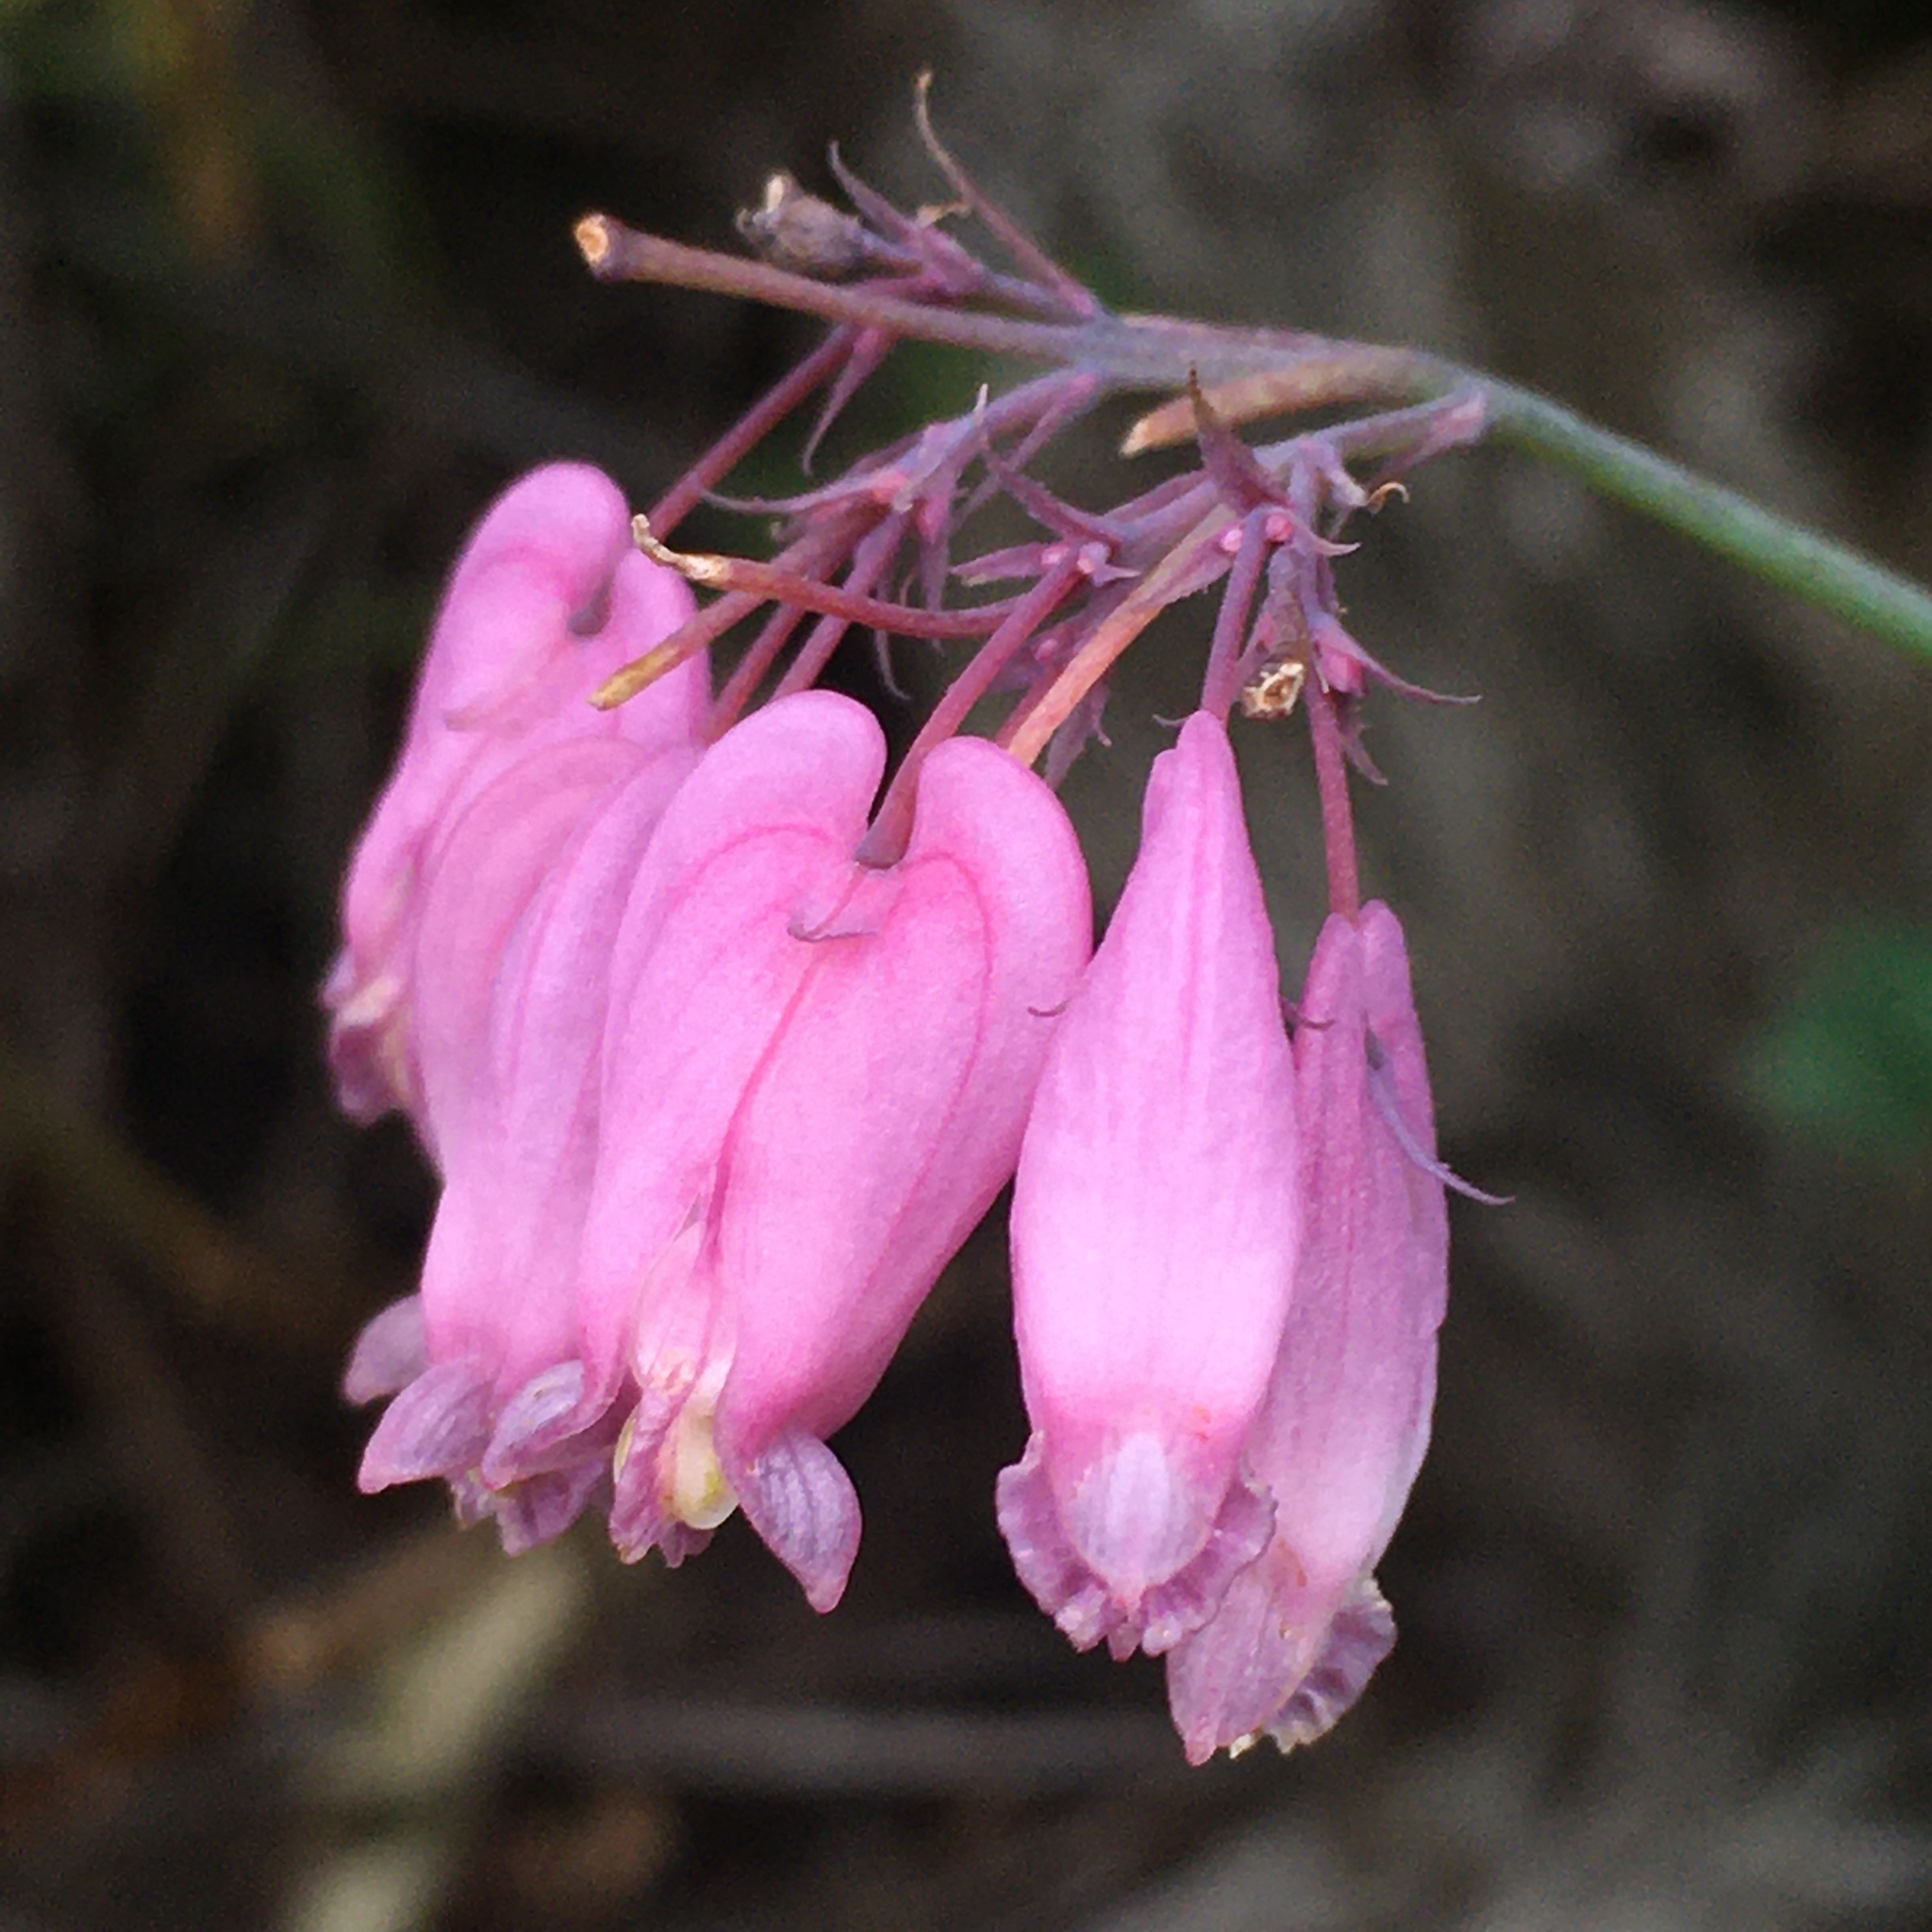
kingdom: Plantae
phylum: Tracheophyta
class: Magnoliopsida
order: Ranunculales
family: Papaveraceae
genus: Dicentra
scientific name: Dicentra formosa
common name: Bleeding-heart
